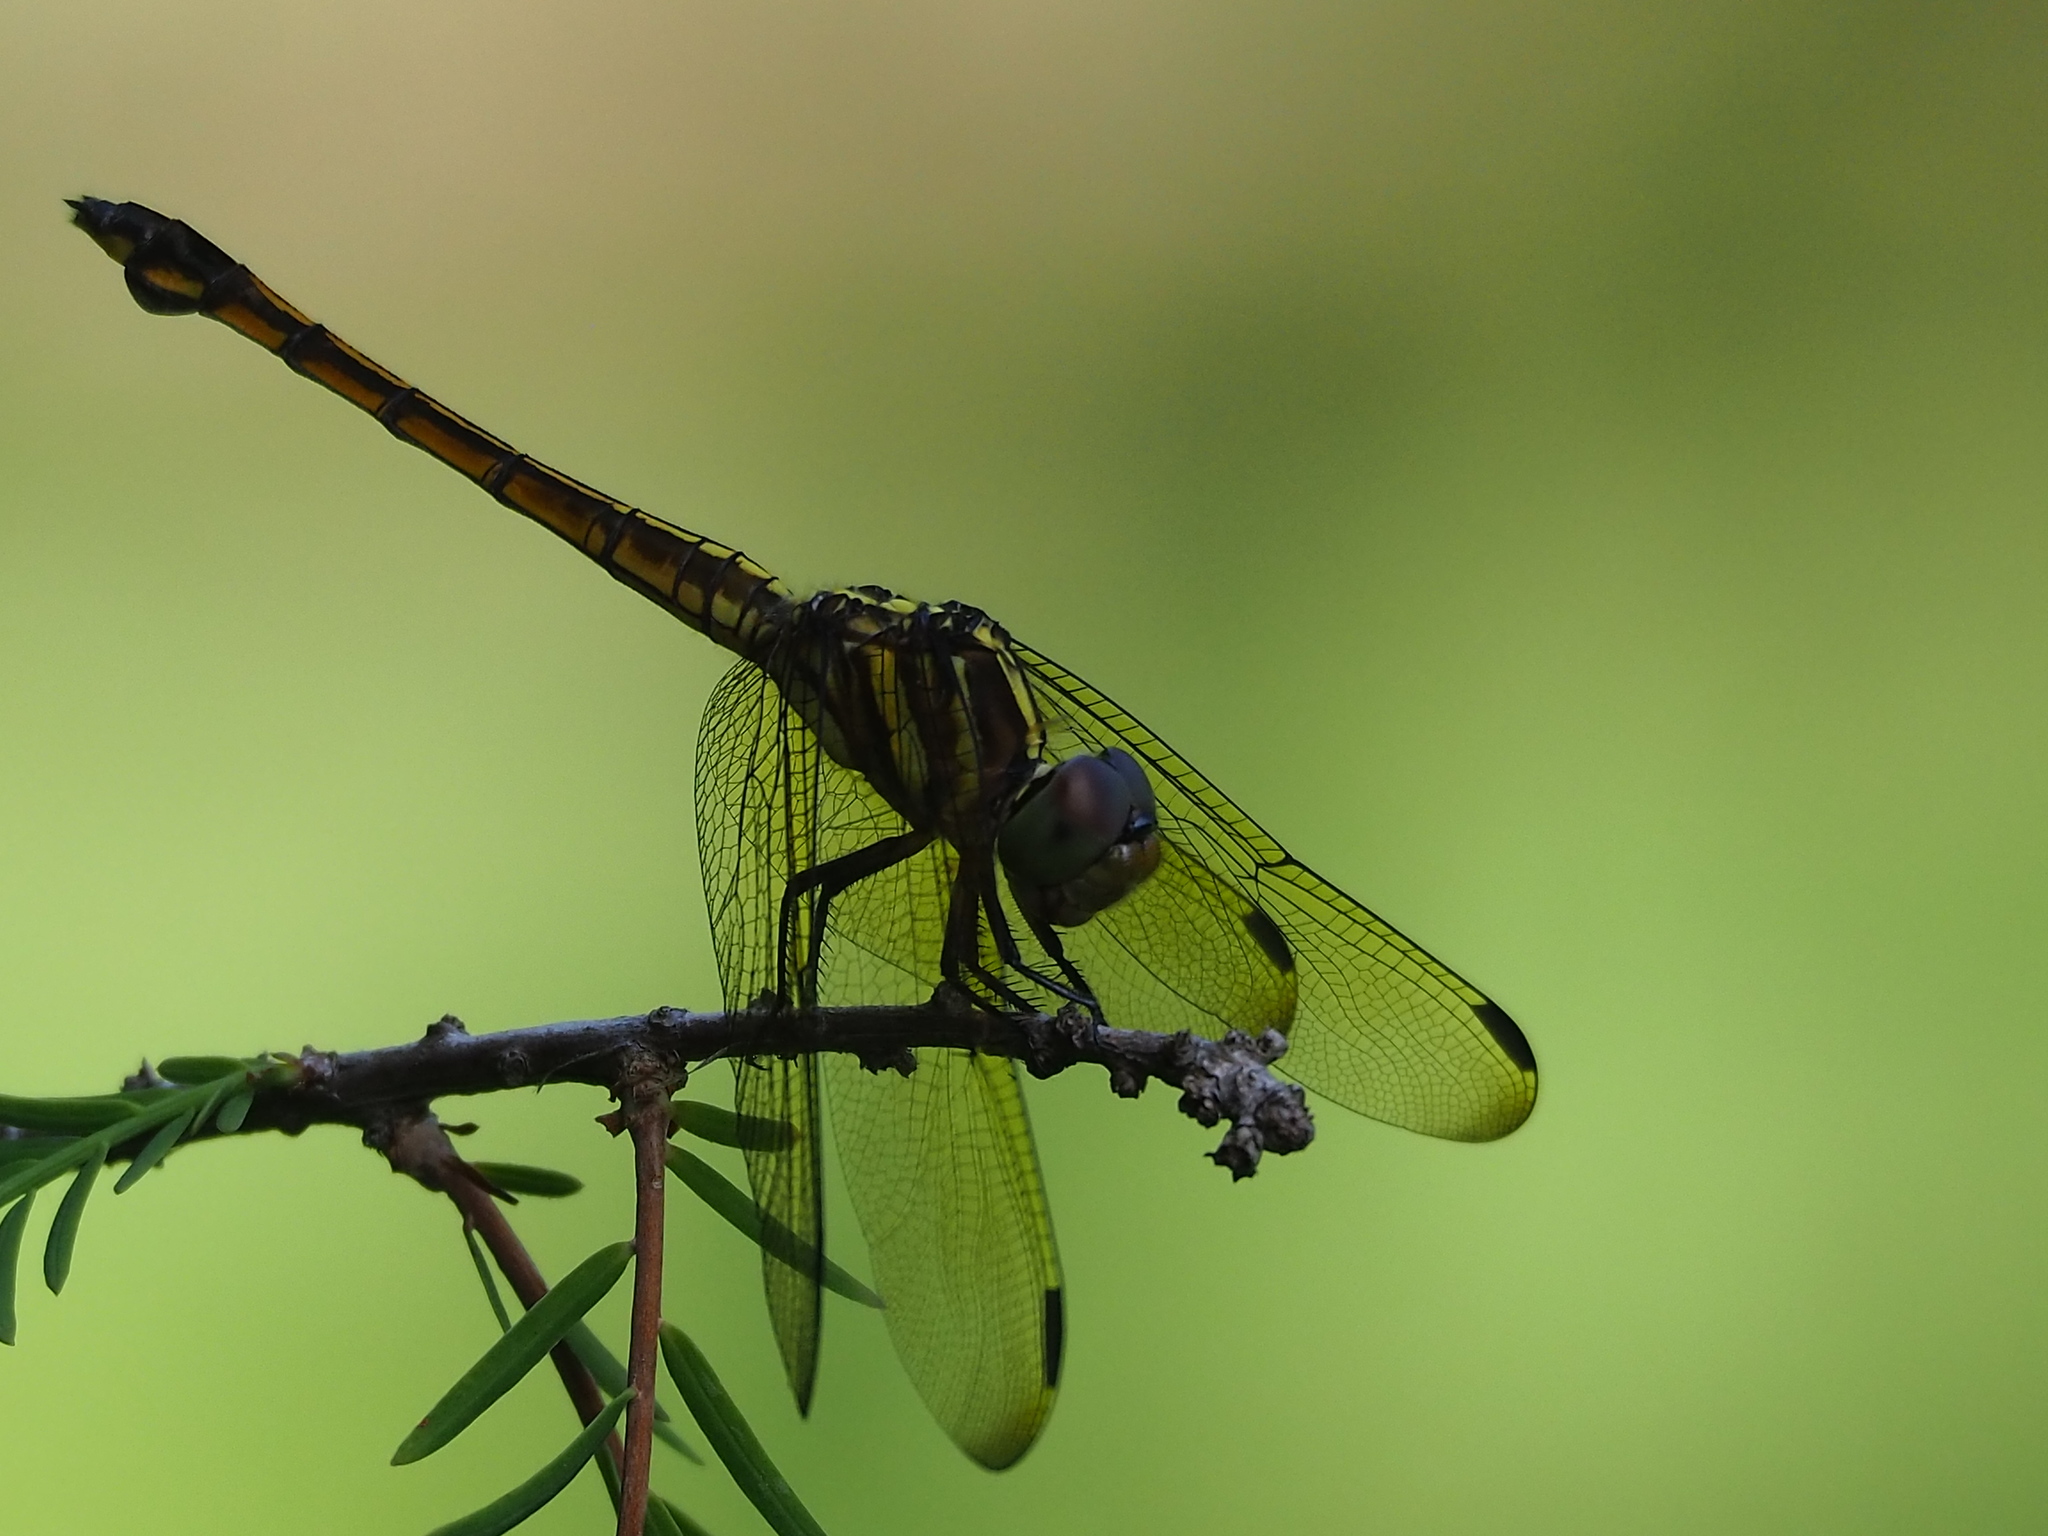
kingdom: Animalia
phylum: Arthropoda
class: Insecta
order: Odonata
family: Libellulidae
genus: Potamarcha
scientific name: Potamarcha congener
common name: Blue chaser
